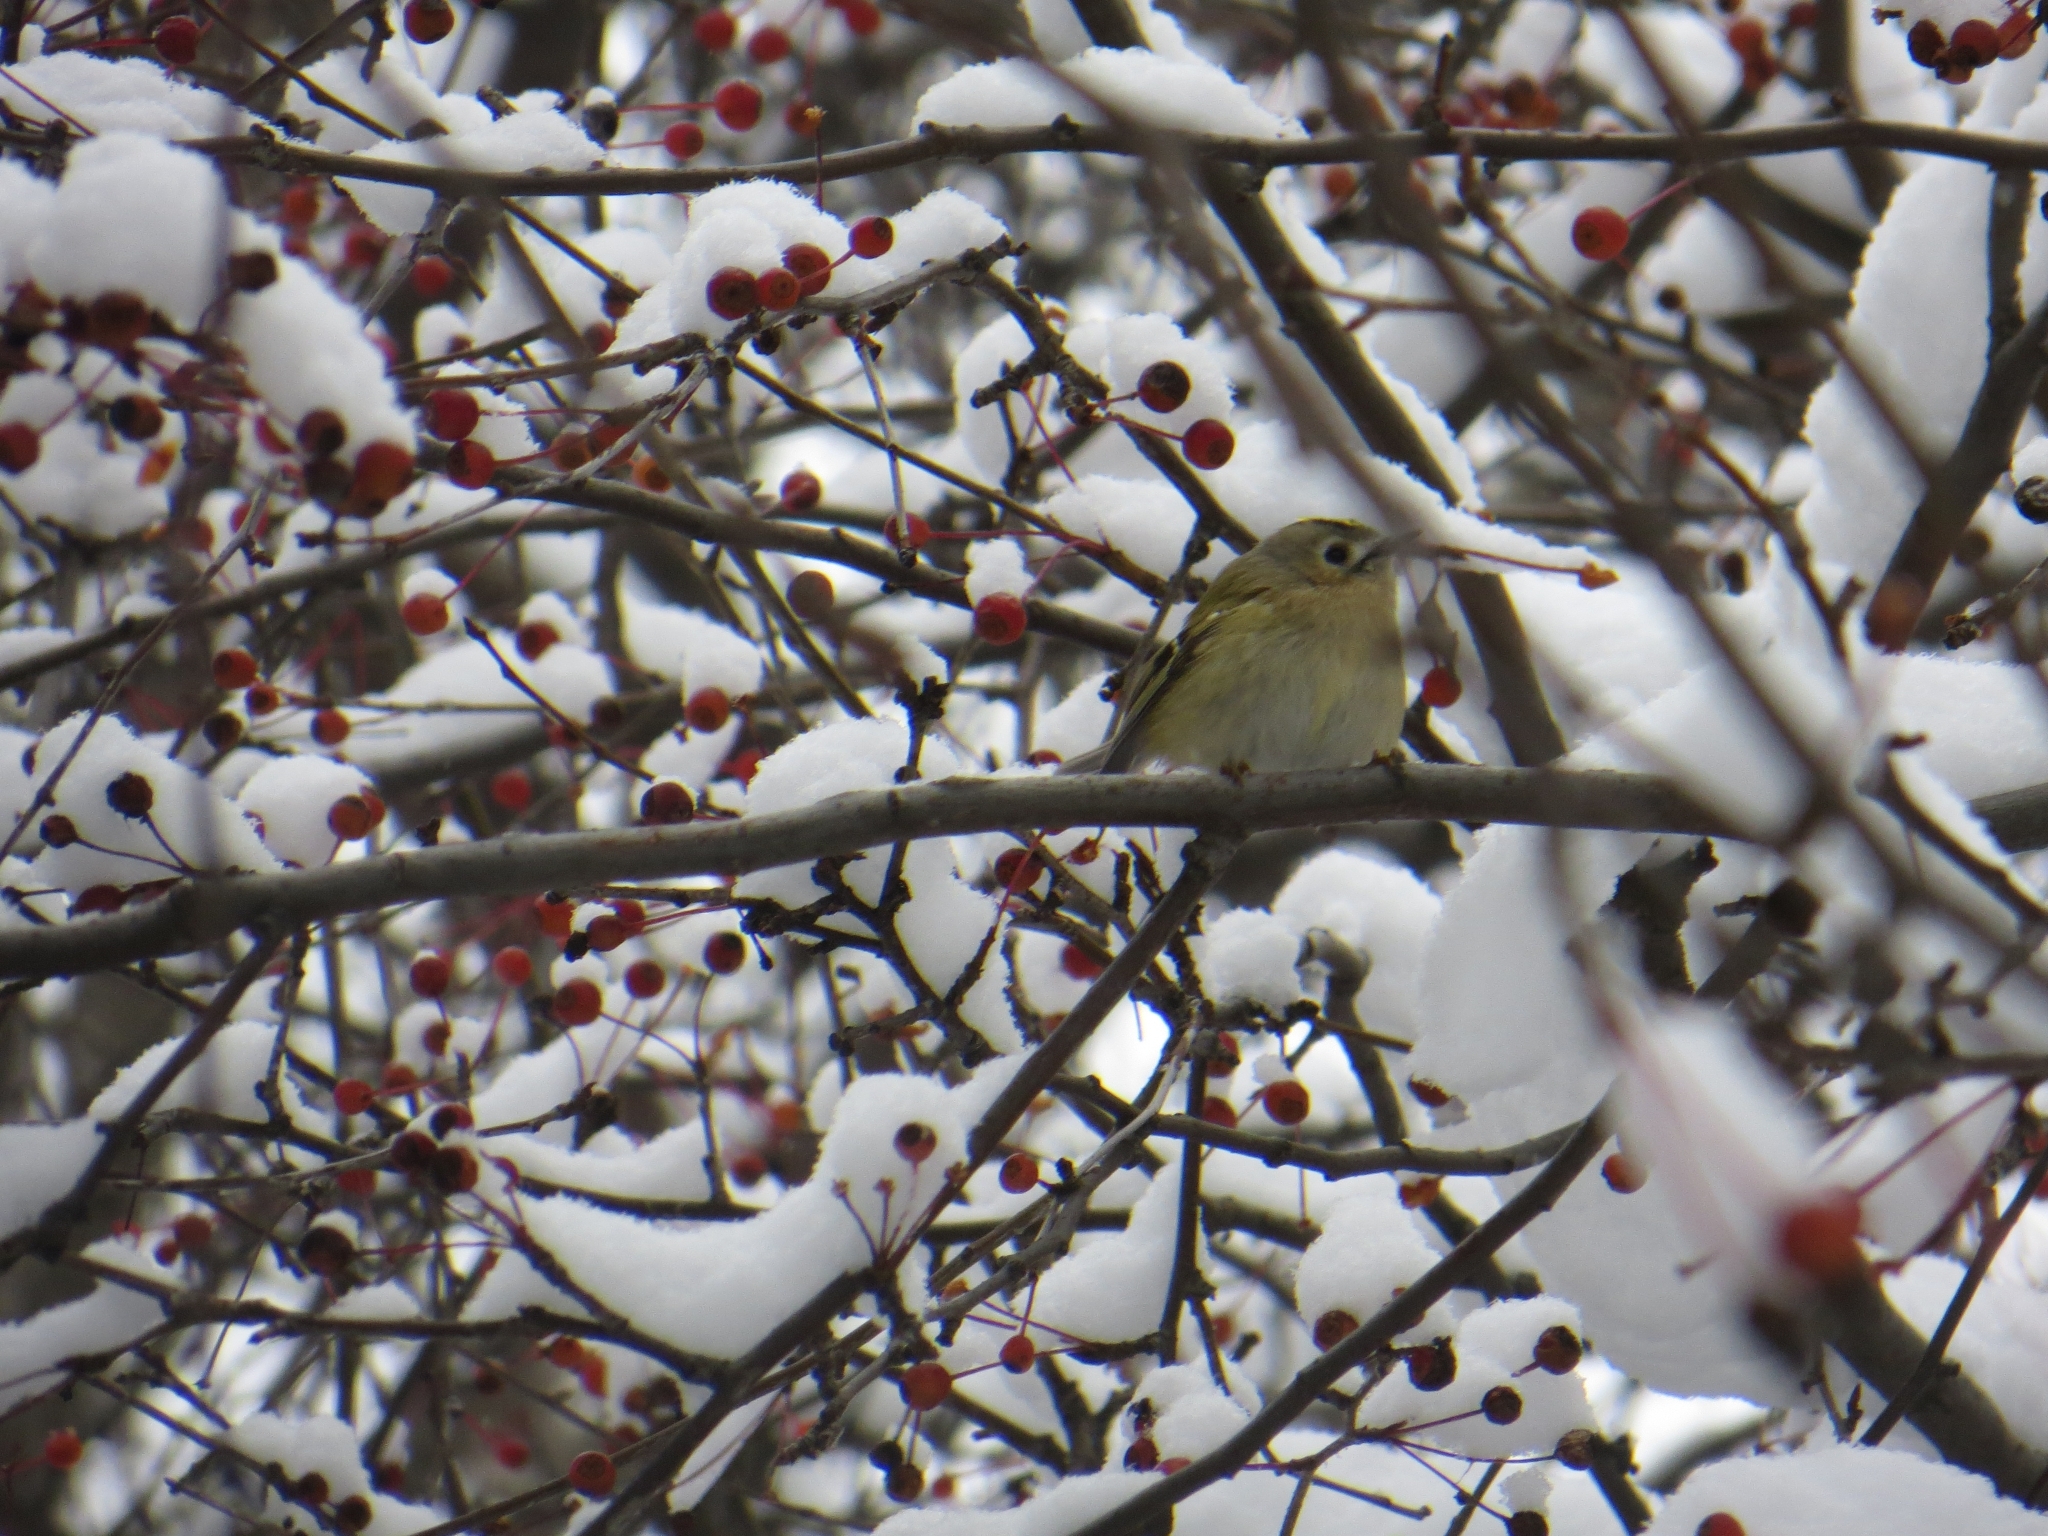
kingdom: Animalia
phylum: Chordata
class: Aves
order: Passeriformes
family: Regulidae
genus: Regulus
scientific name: Regulus regulus
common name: Goldcrest
